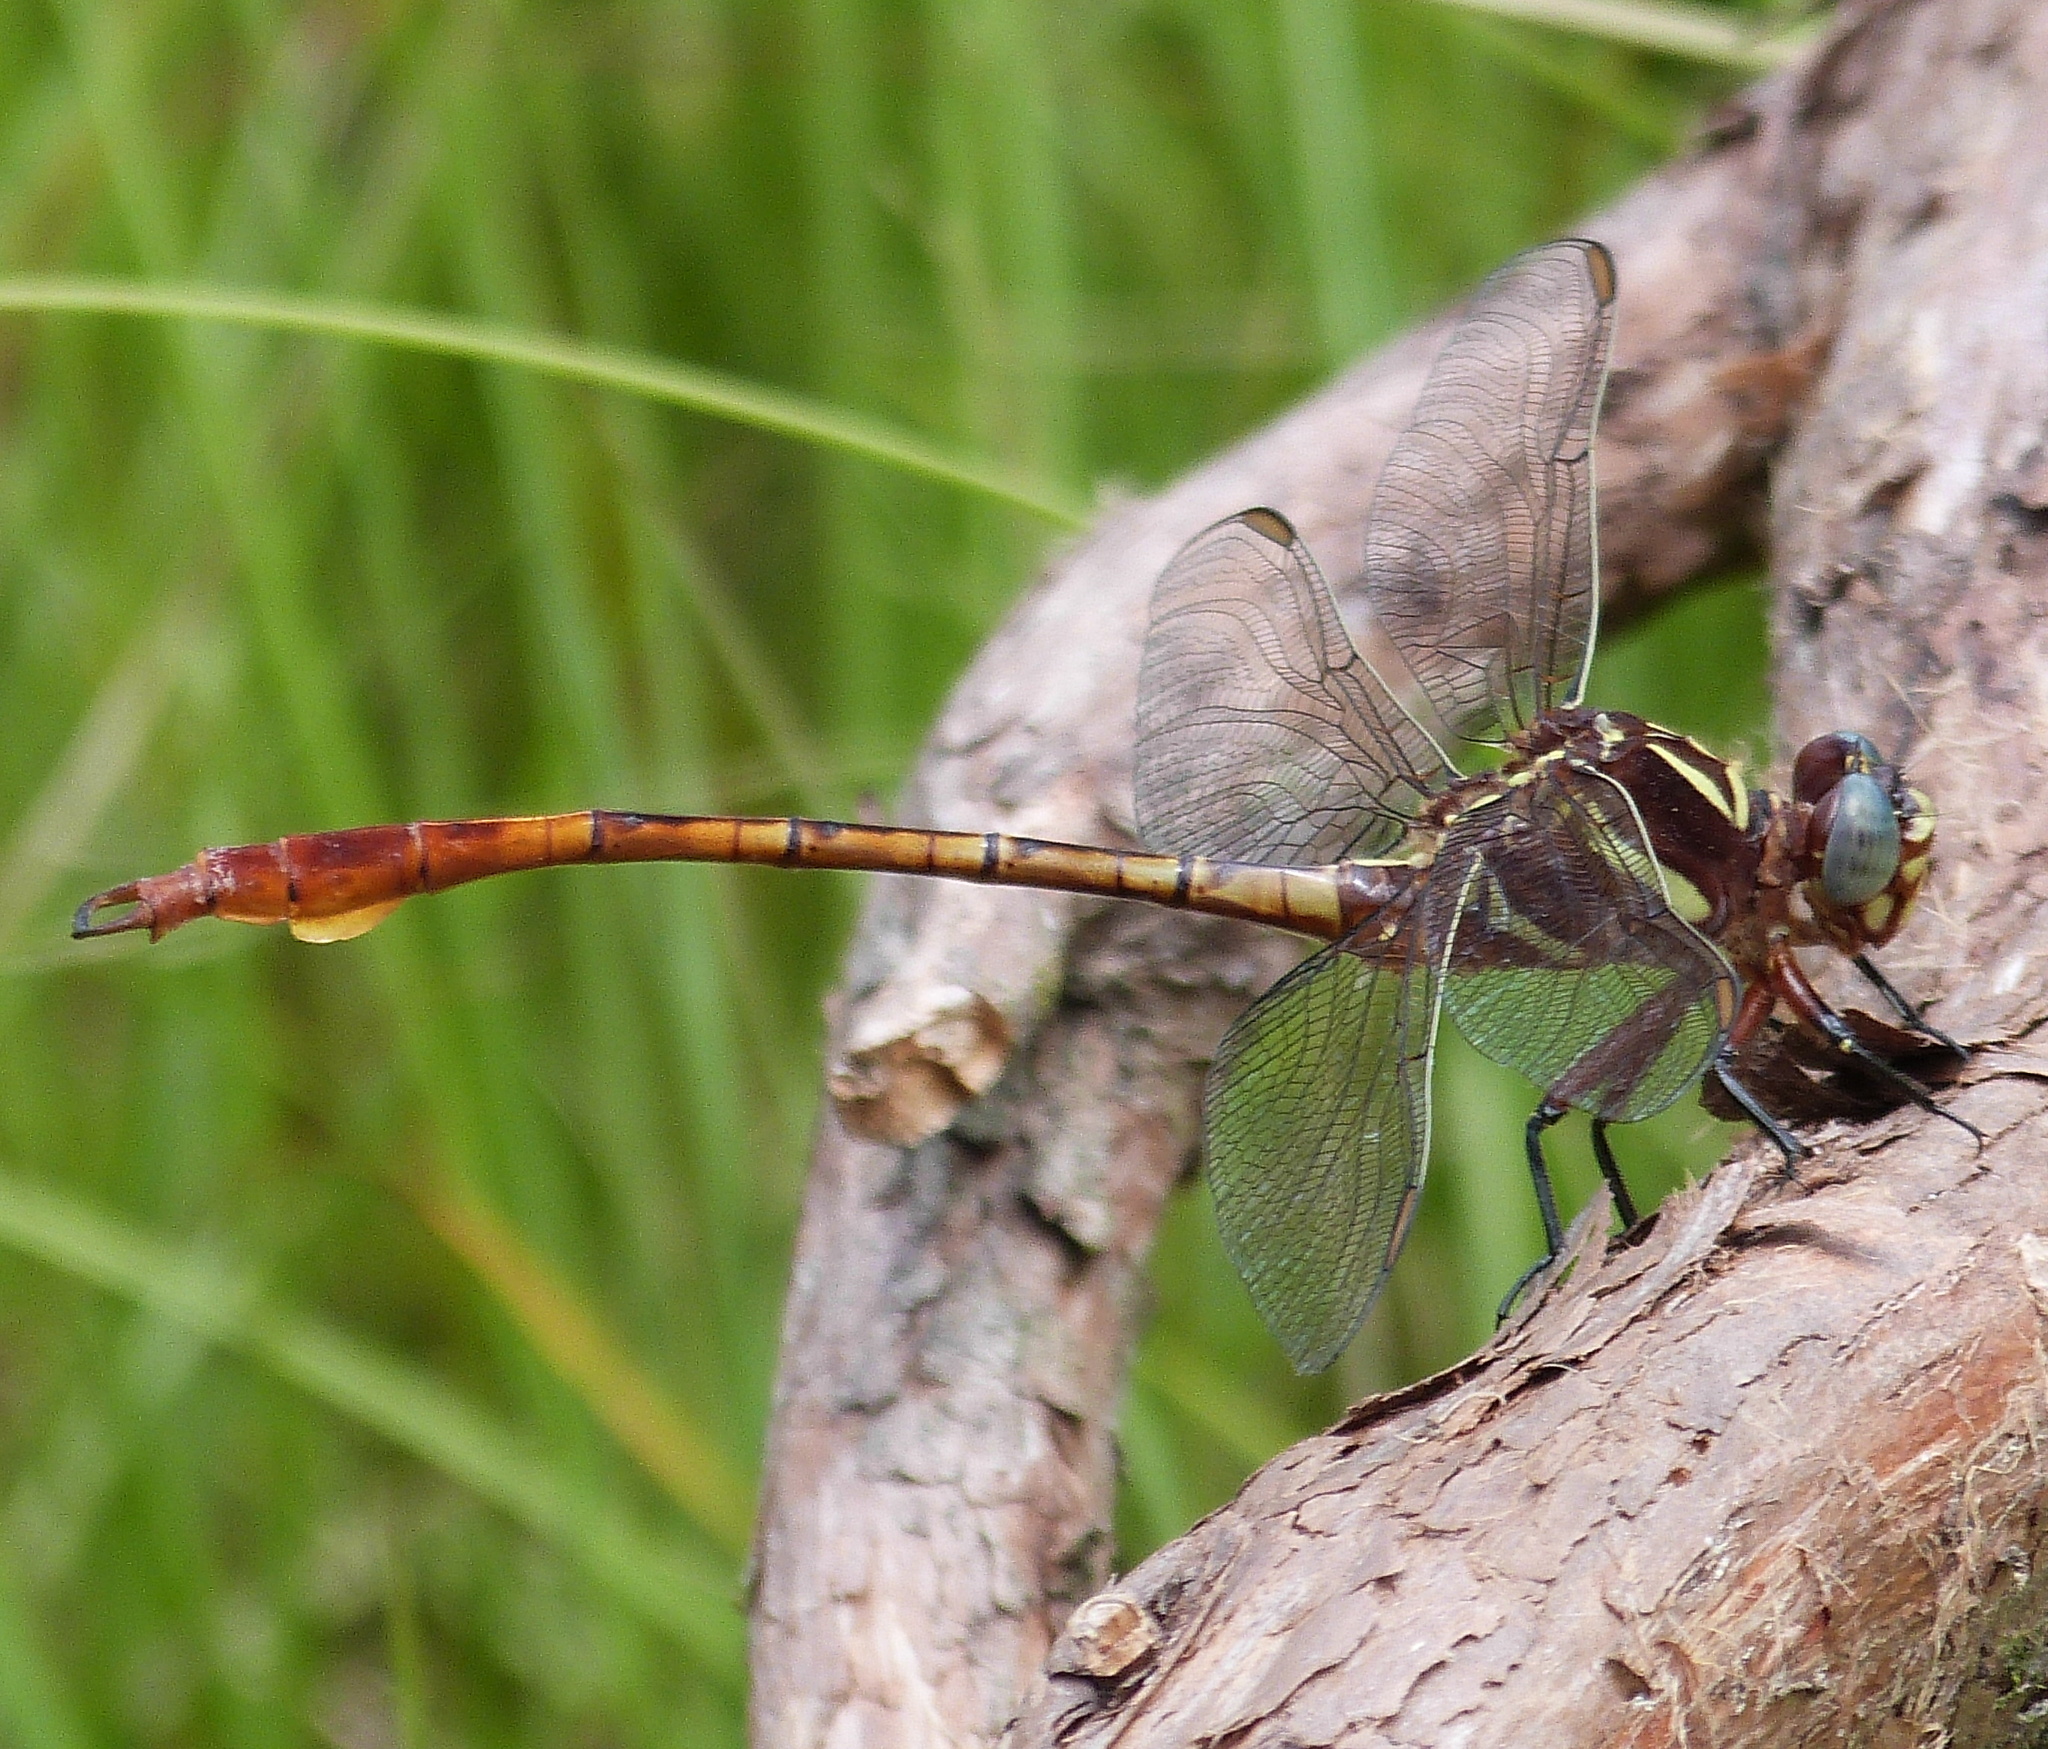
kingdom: Animalia
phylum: Arthropoda
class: Insecta
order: Odonata
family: Gomphidae
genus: Aphylla
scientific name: Aphylla williamsoni
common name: Two-striped forceptail
